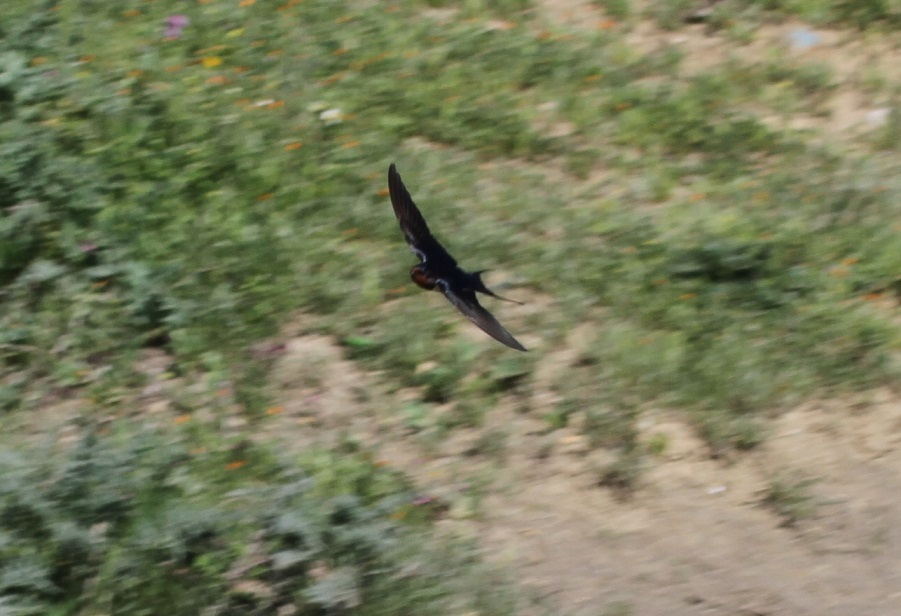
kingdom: Animalia
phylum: Chordata
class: Aves
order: Passeriformes
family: Hirundinidae
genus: Hirundo
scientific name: Hirundo rustica
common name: Barn swallow
